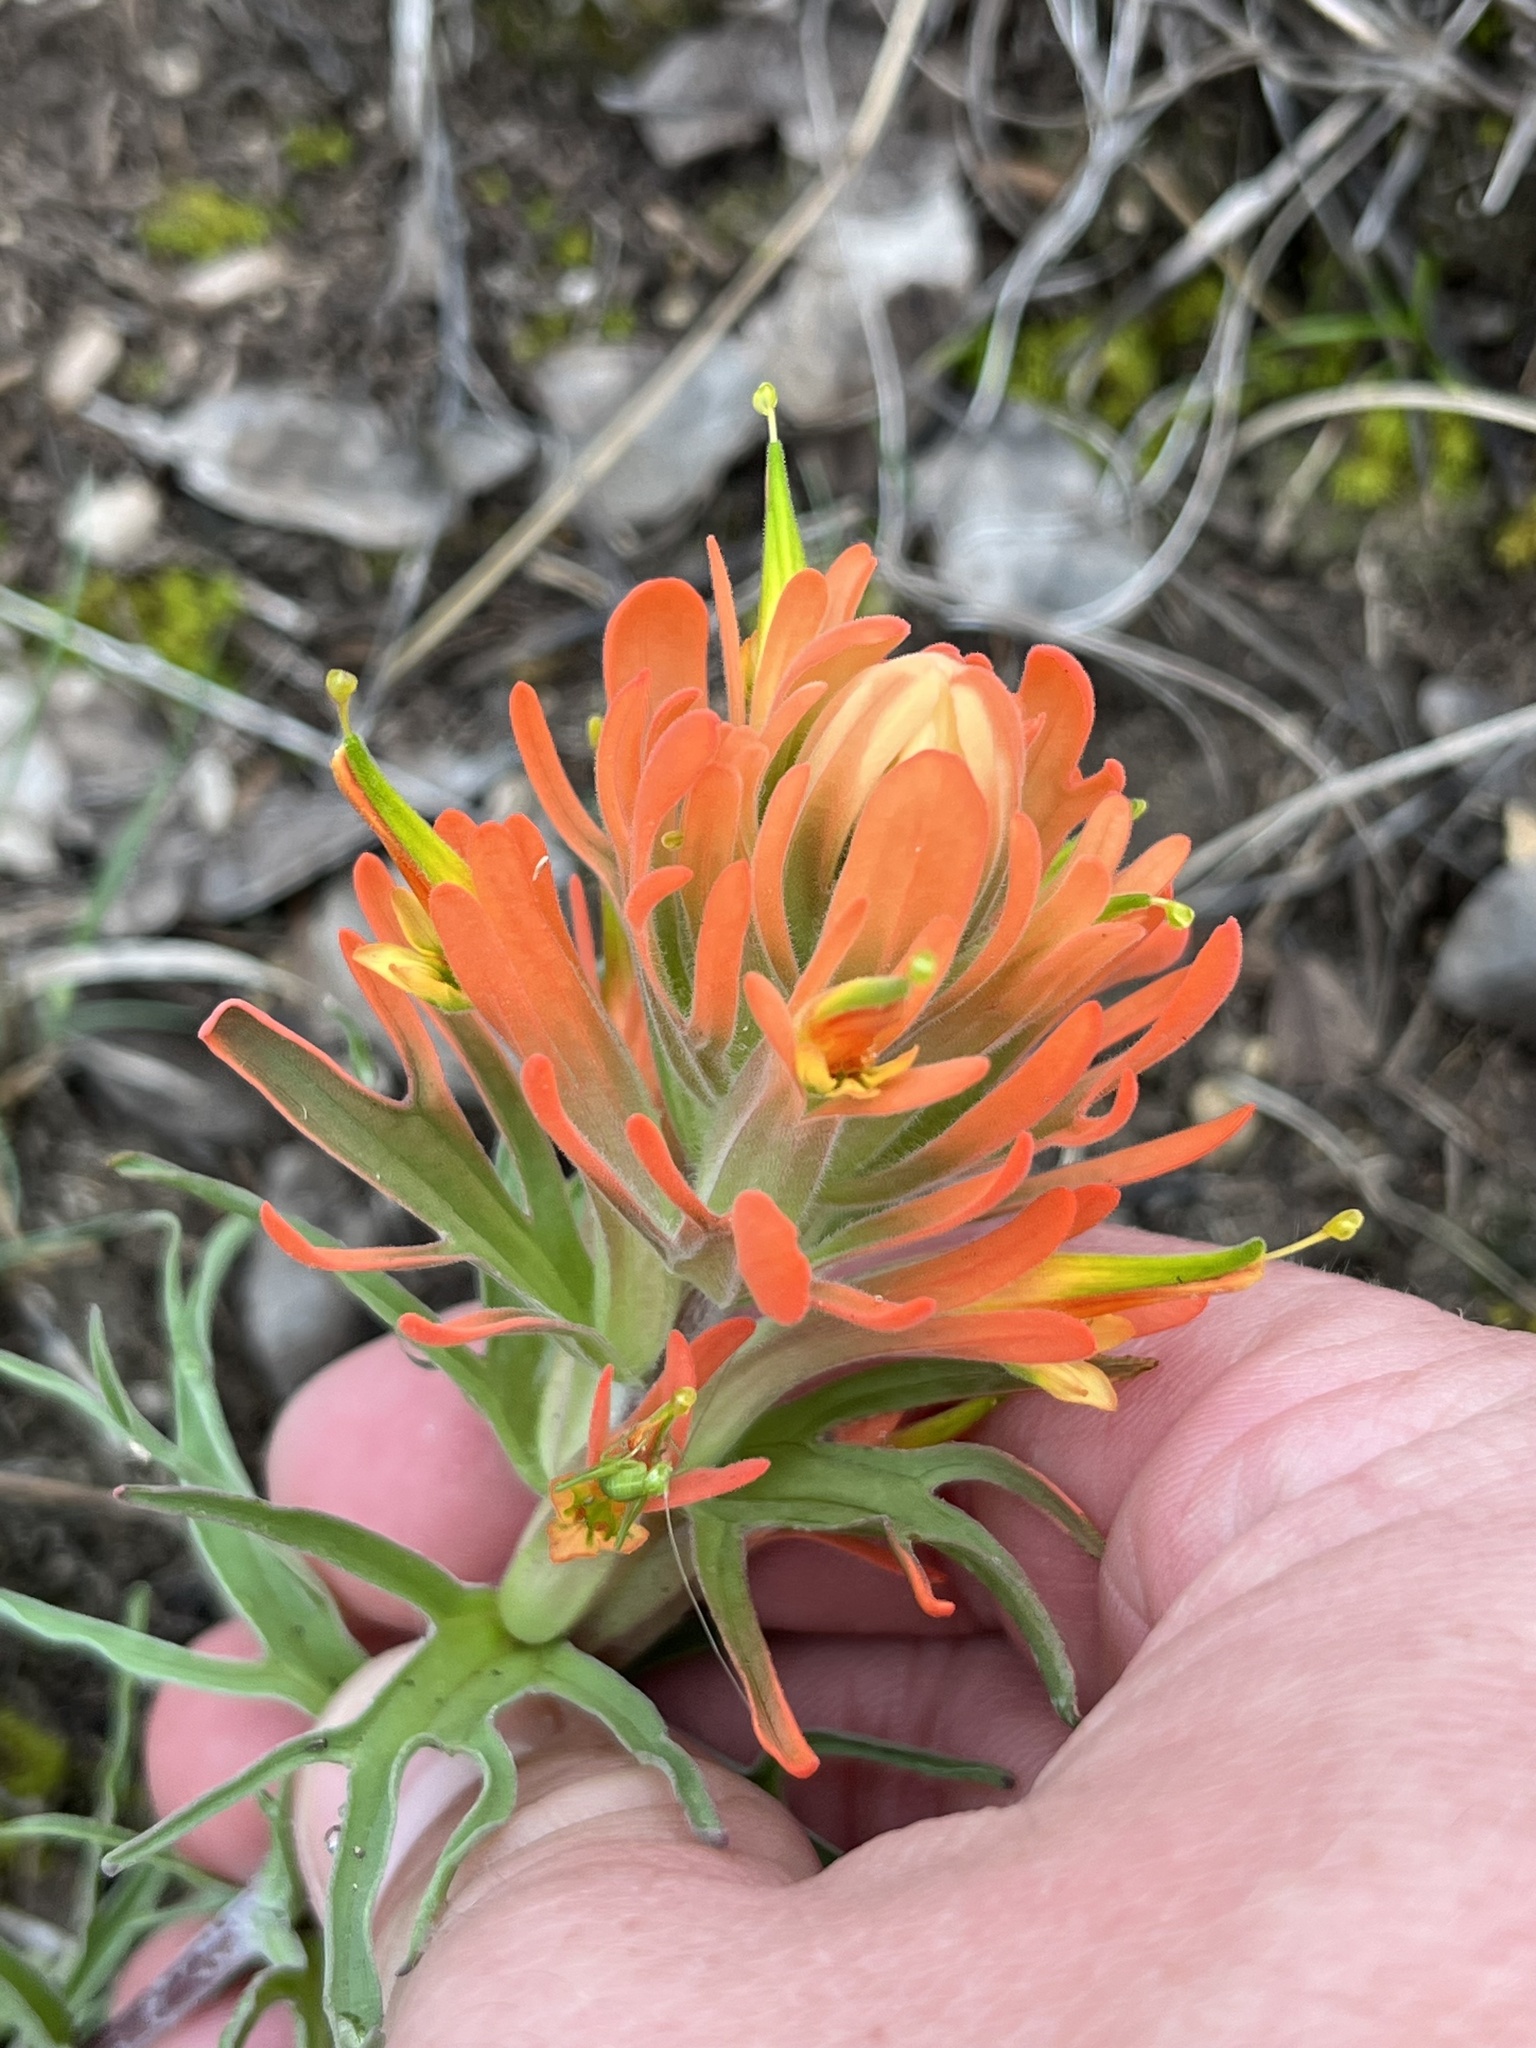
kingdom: Plantae
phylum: Tracheophyta
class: Magnoliopsida
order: Lamiales
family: Orobanchaceae
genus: Castilleja
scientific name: Castilleja lindheimeri
